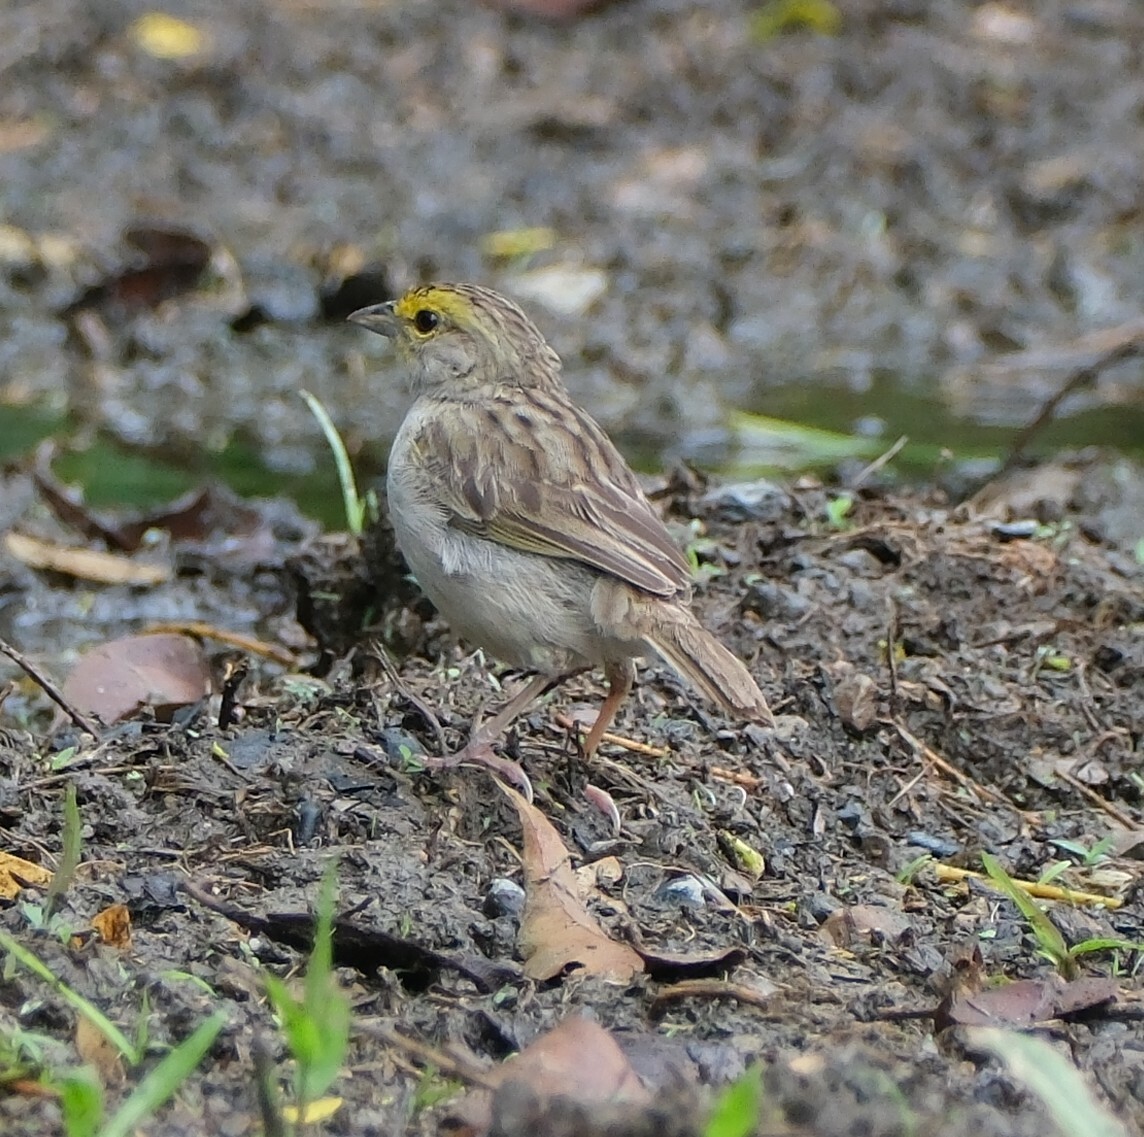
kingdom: Animalia
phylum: Chordata
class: Aves
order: Passeriformes
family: Passerellidae
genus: Ammodramus
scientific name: Ammodramus aurifrons
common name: Yellow-browed sparrow
